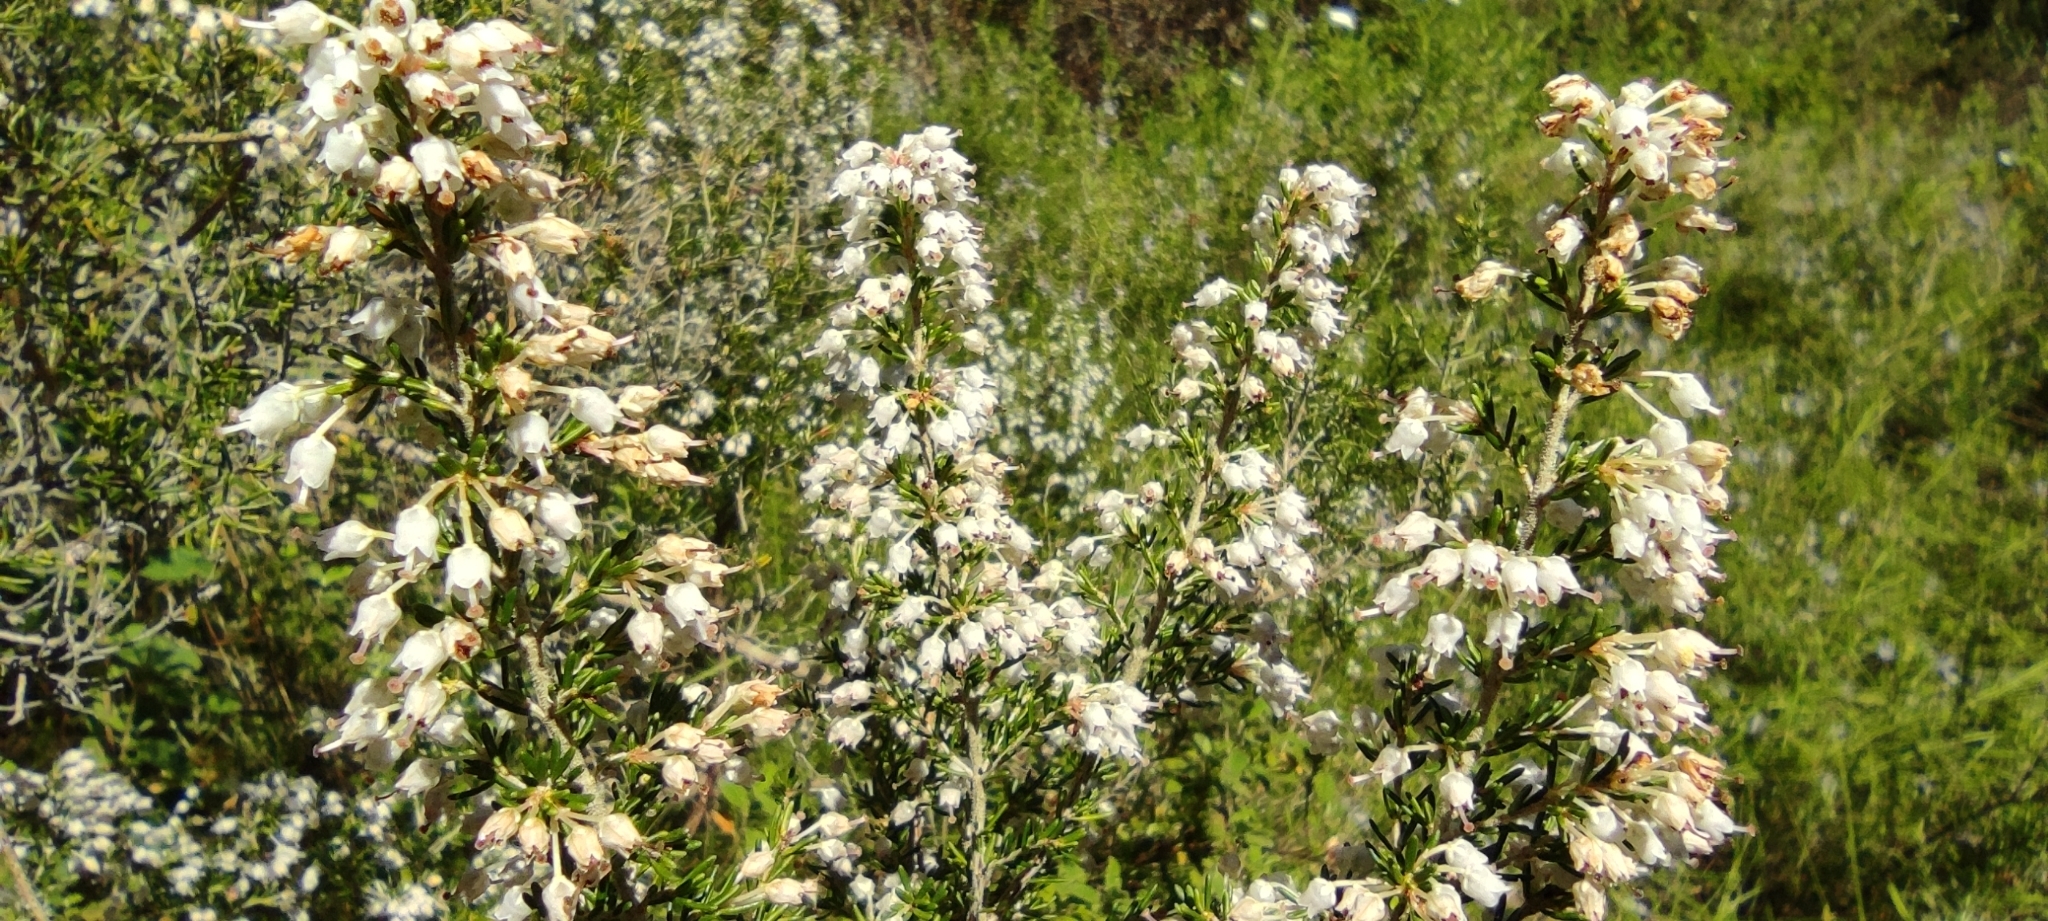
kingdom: Plantae
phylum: Tracheophyta
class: Magnoliopsida
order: Ericales
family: Ericaceae
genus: Erica
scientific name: Erica arborea
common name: Tree heath
